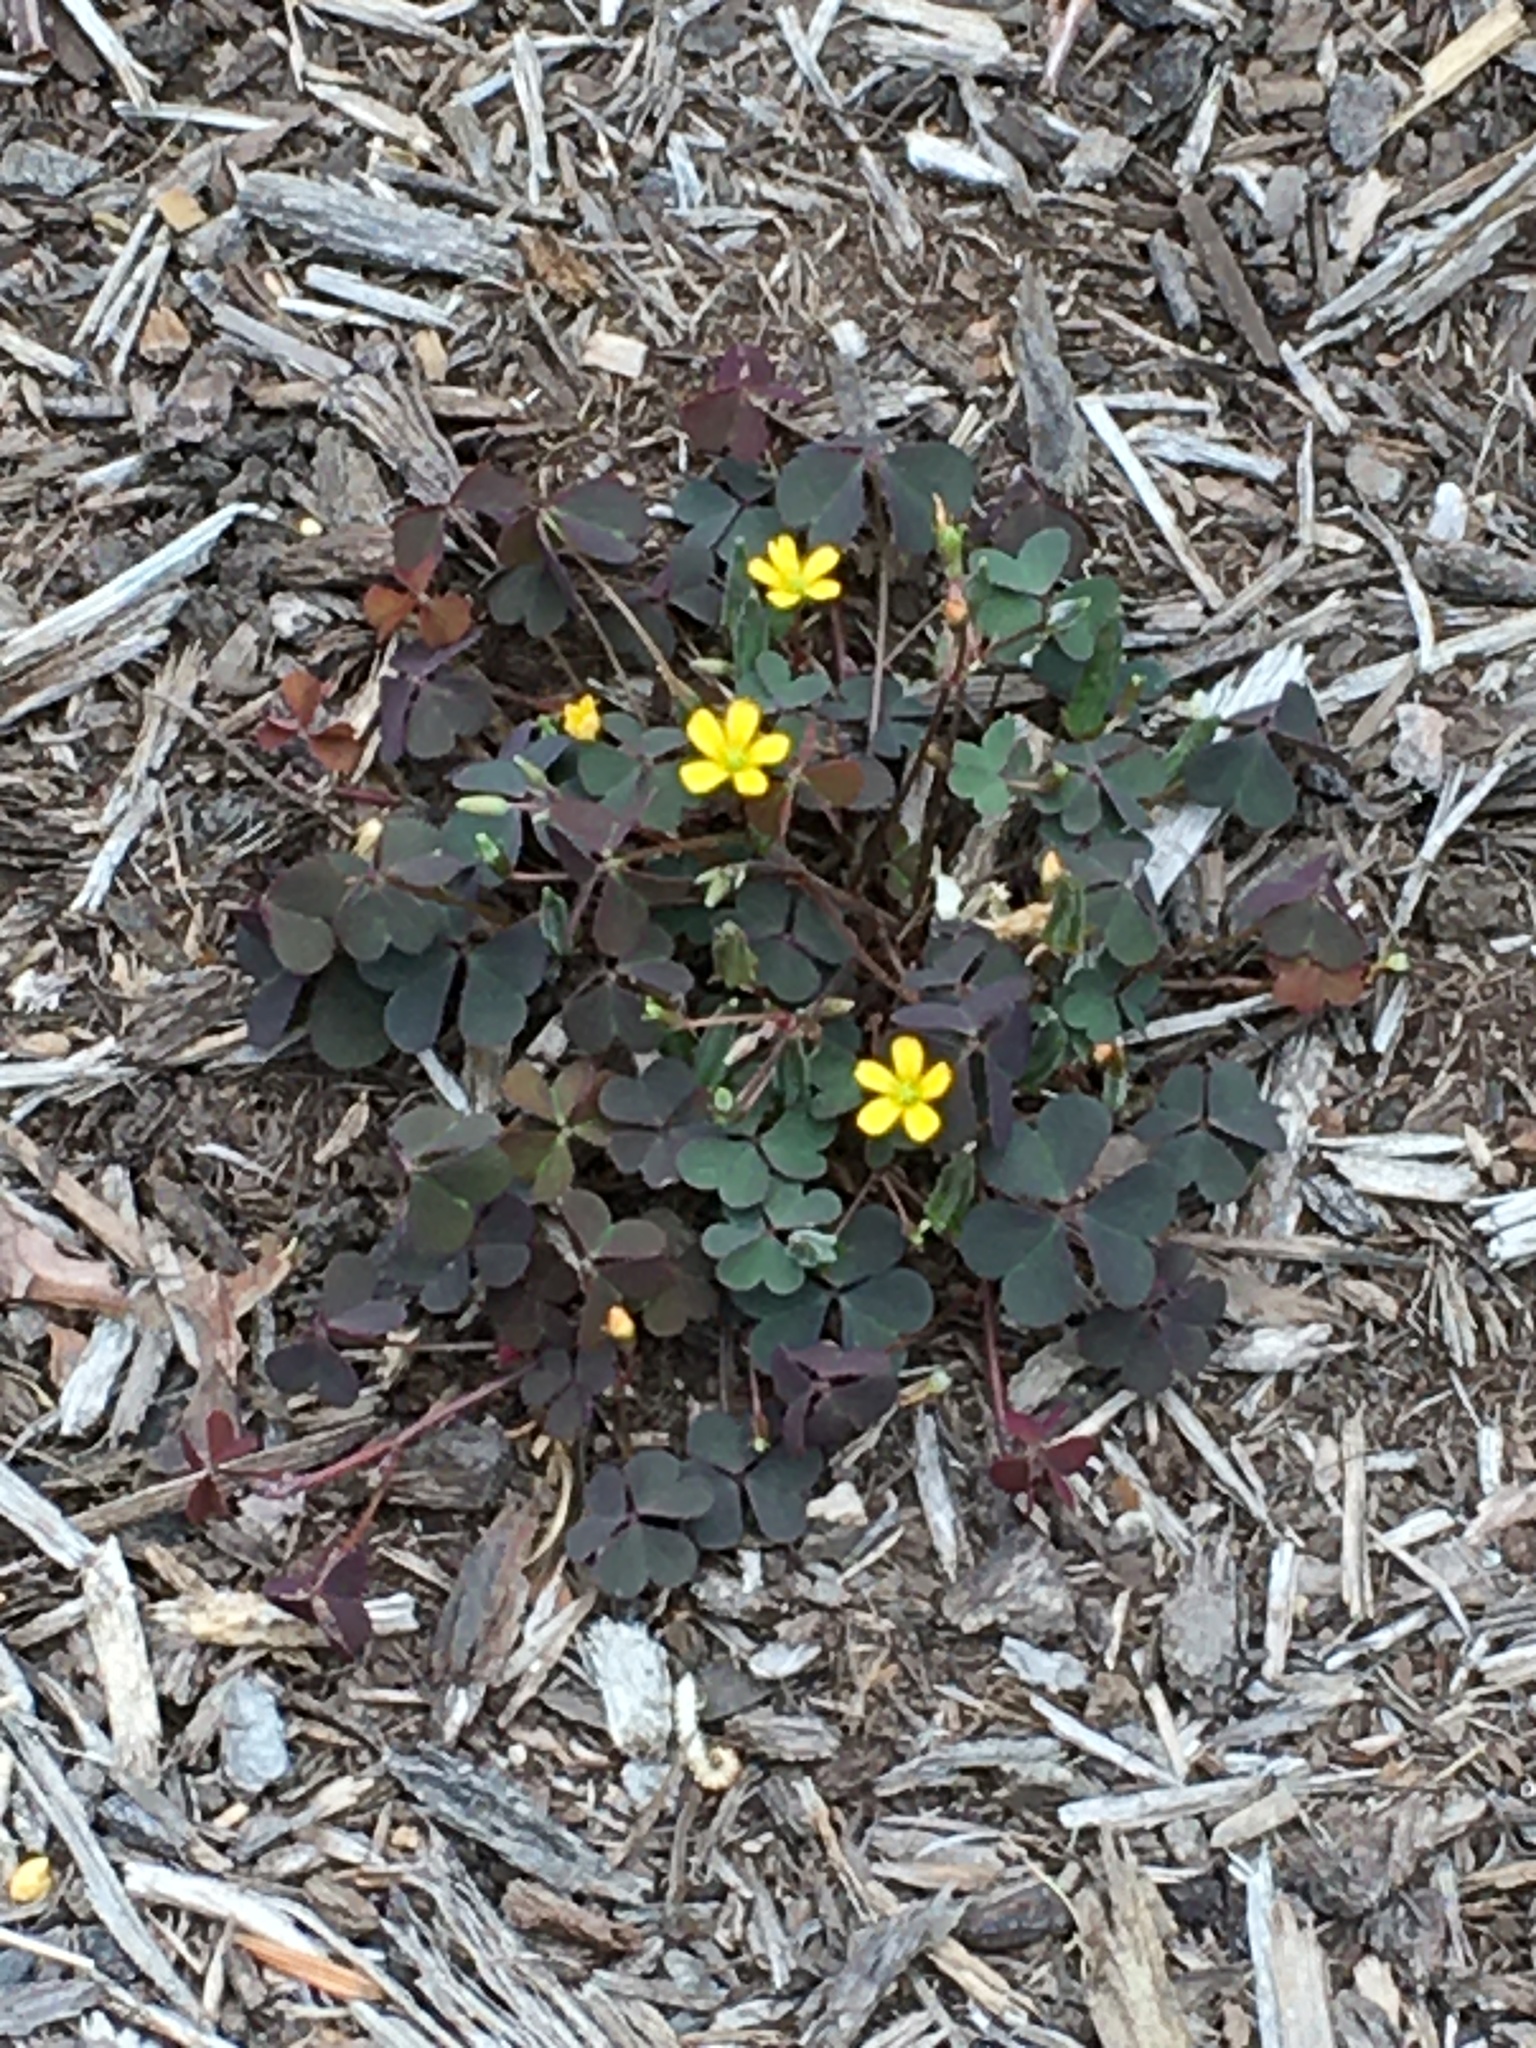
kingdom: Plantae
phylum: Tracheophyta
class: Magnoliopsida
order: Oxalidales
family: Oxalidaceae
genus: Oxalis
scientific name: Oxalis corniculata
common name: Procumbent yellow-sorrel
